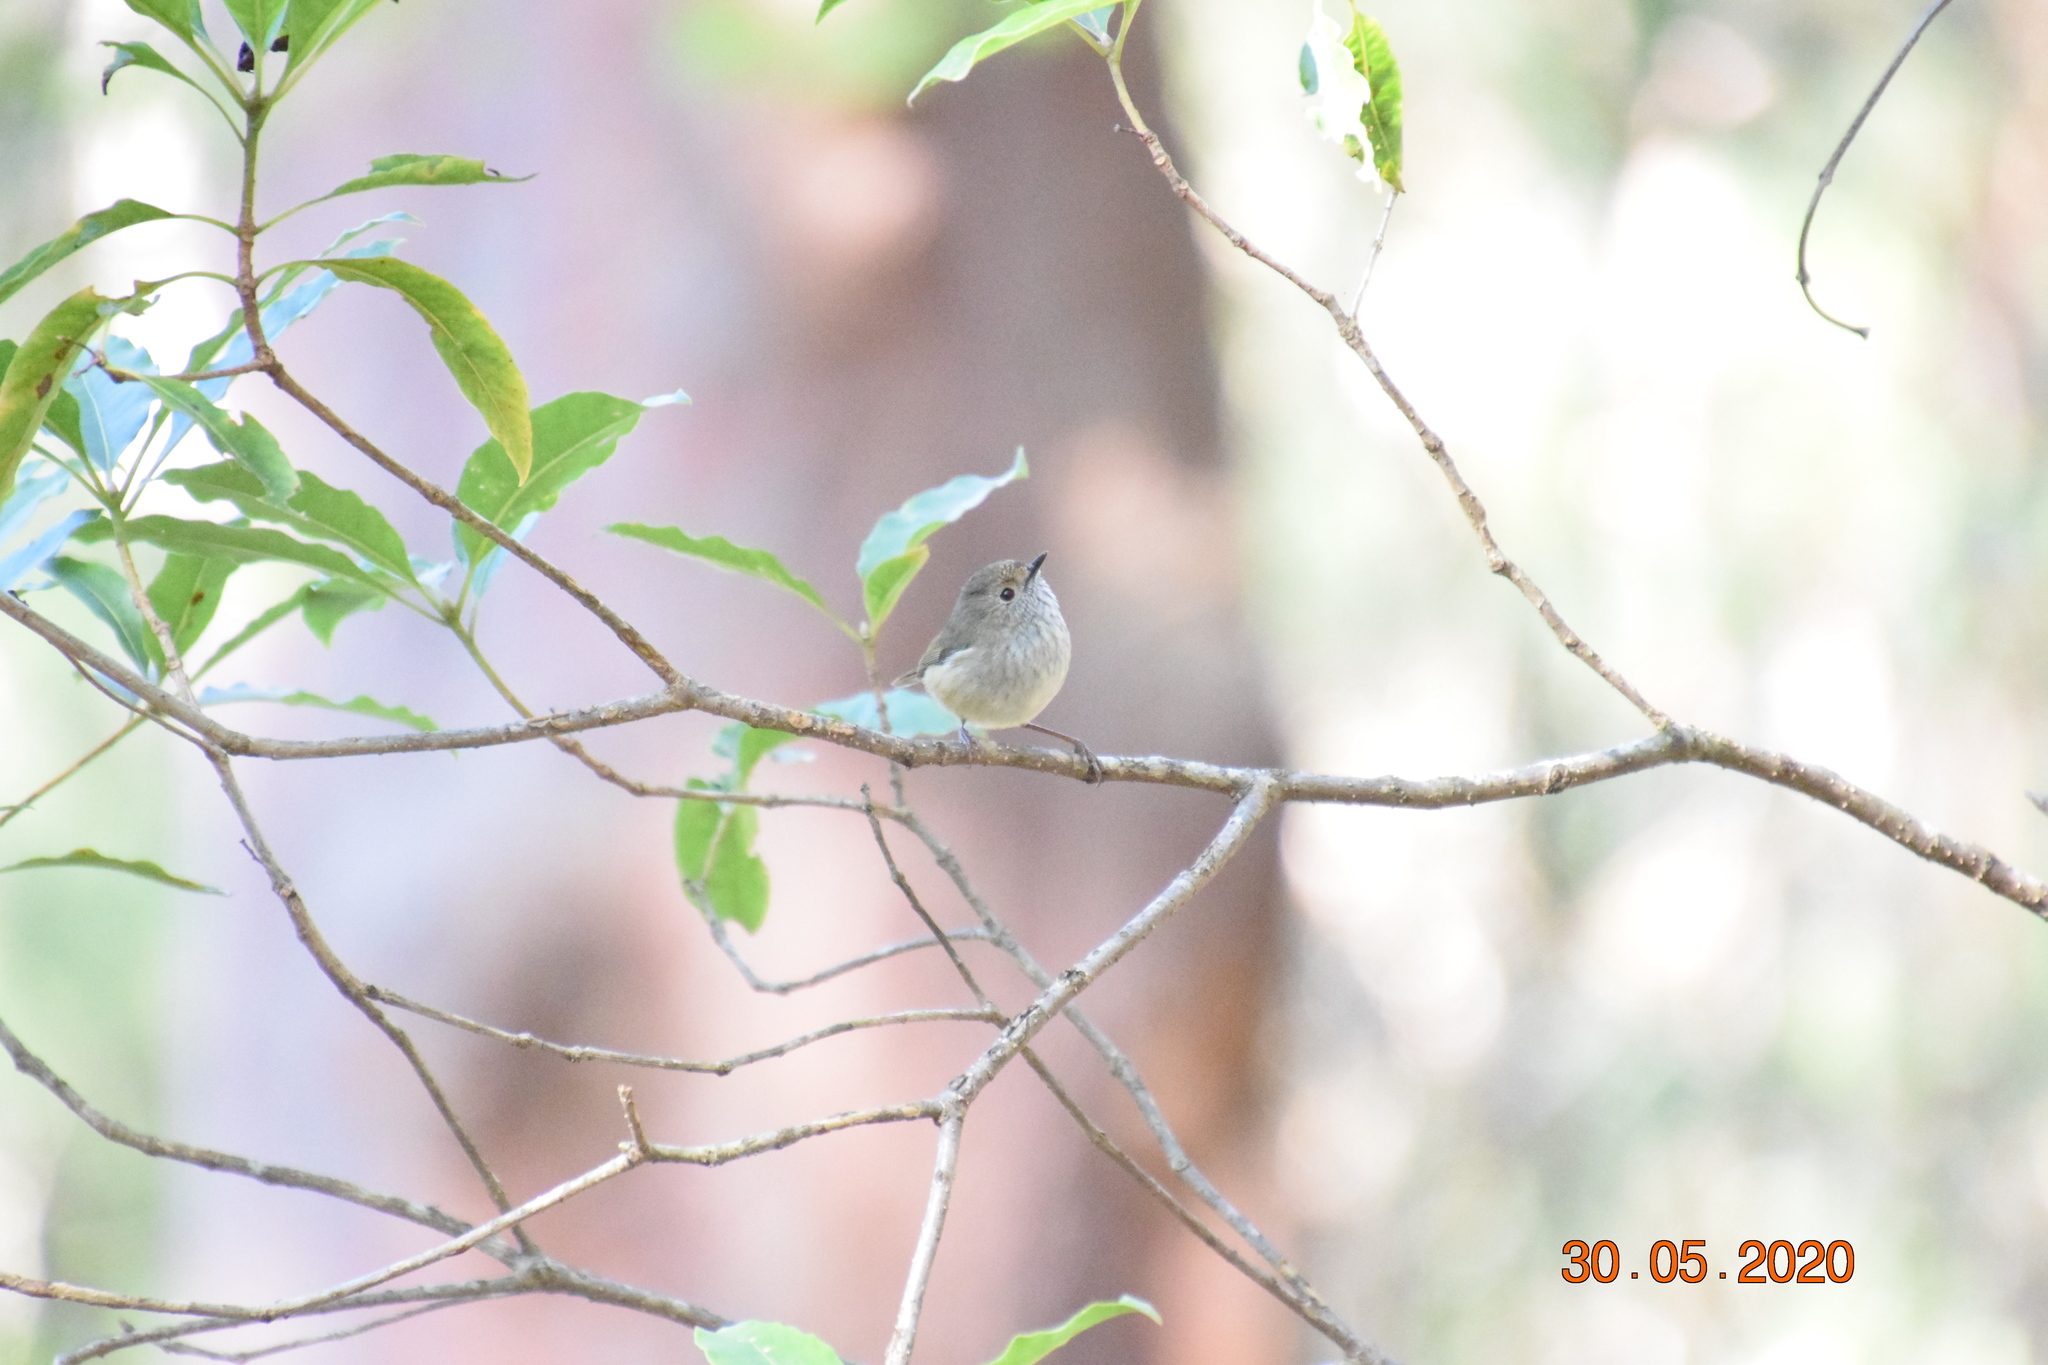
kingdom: Animalia
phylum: Chordata
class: Aves
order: Passeriformes
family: Acanthizidae
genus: Acanthiza
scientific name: Acanthiza pusilla
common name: Brown thornbill
